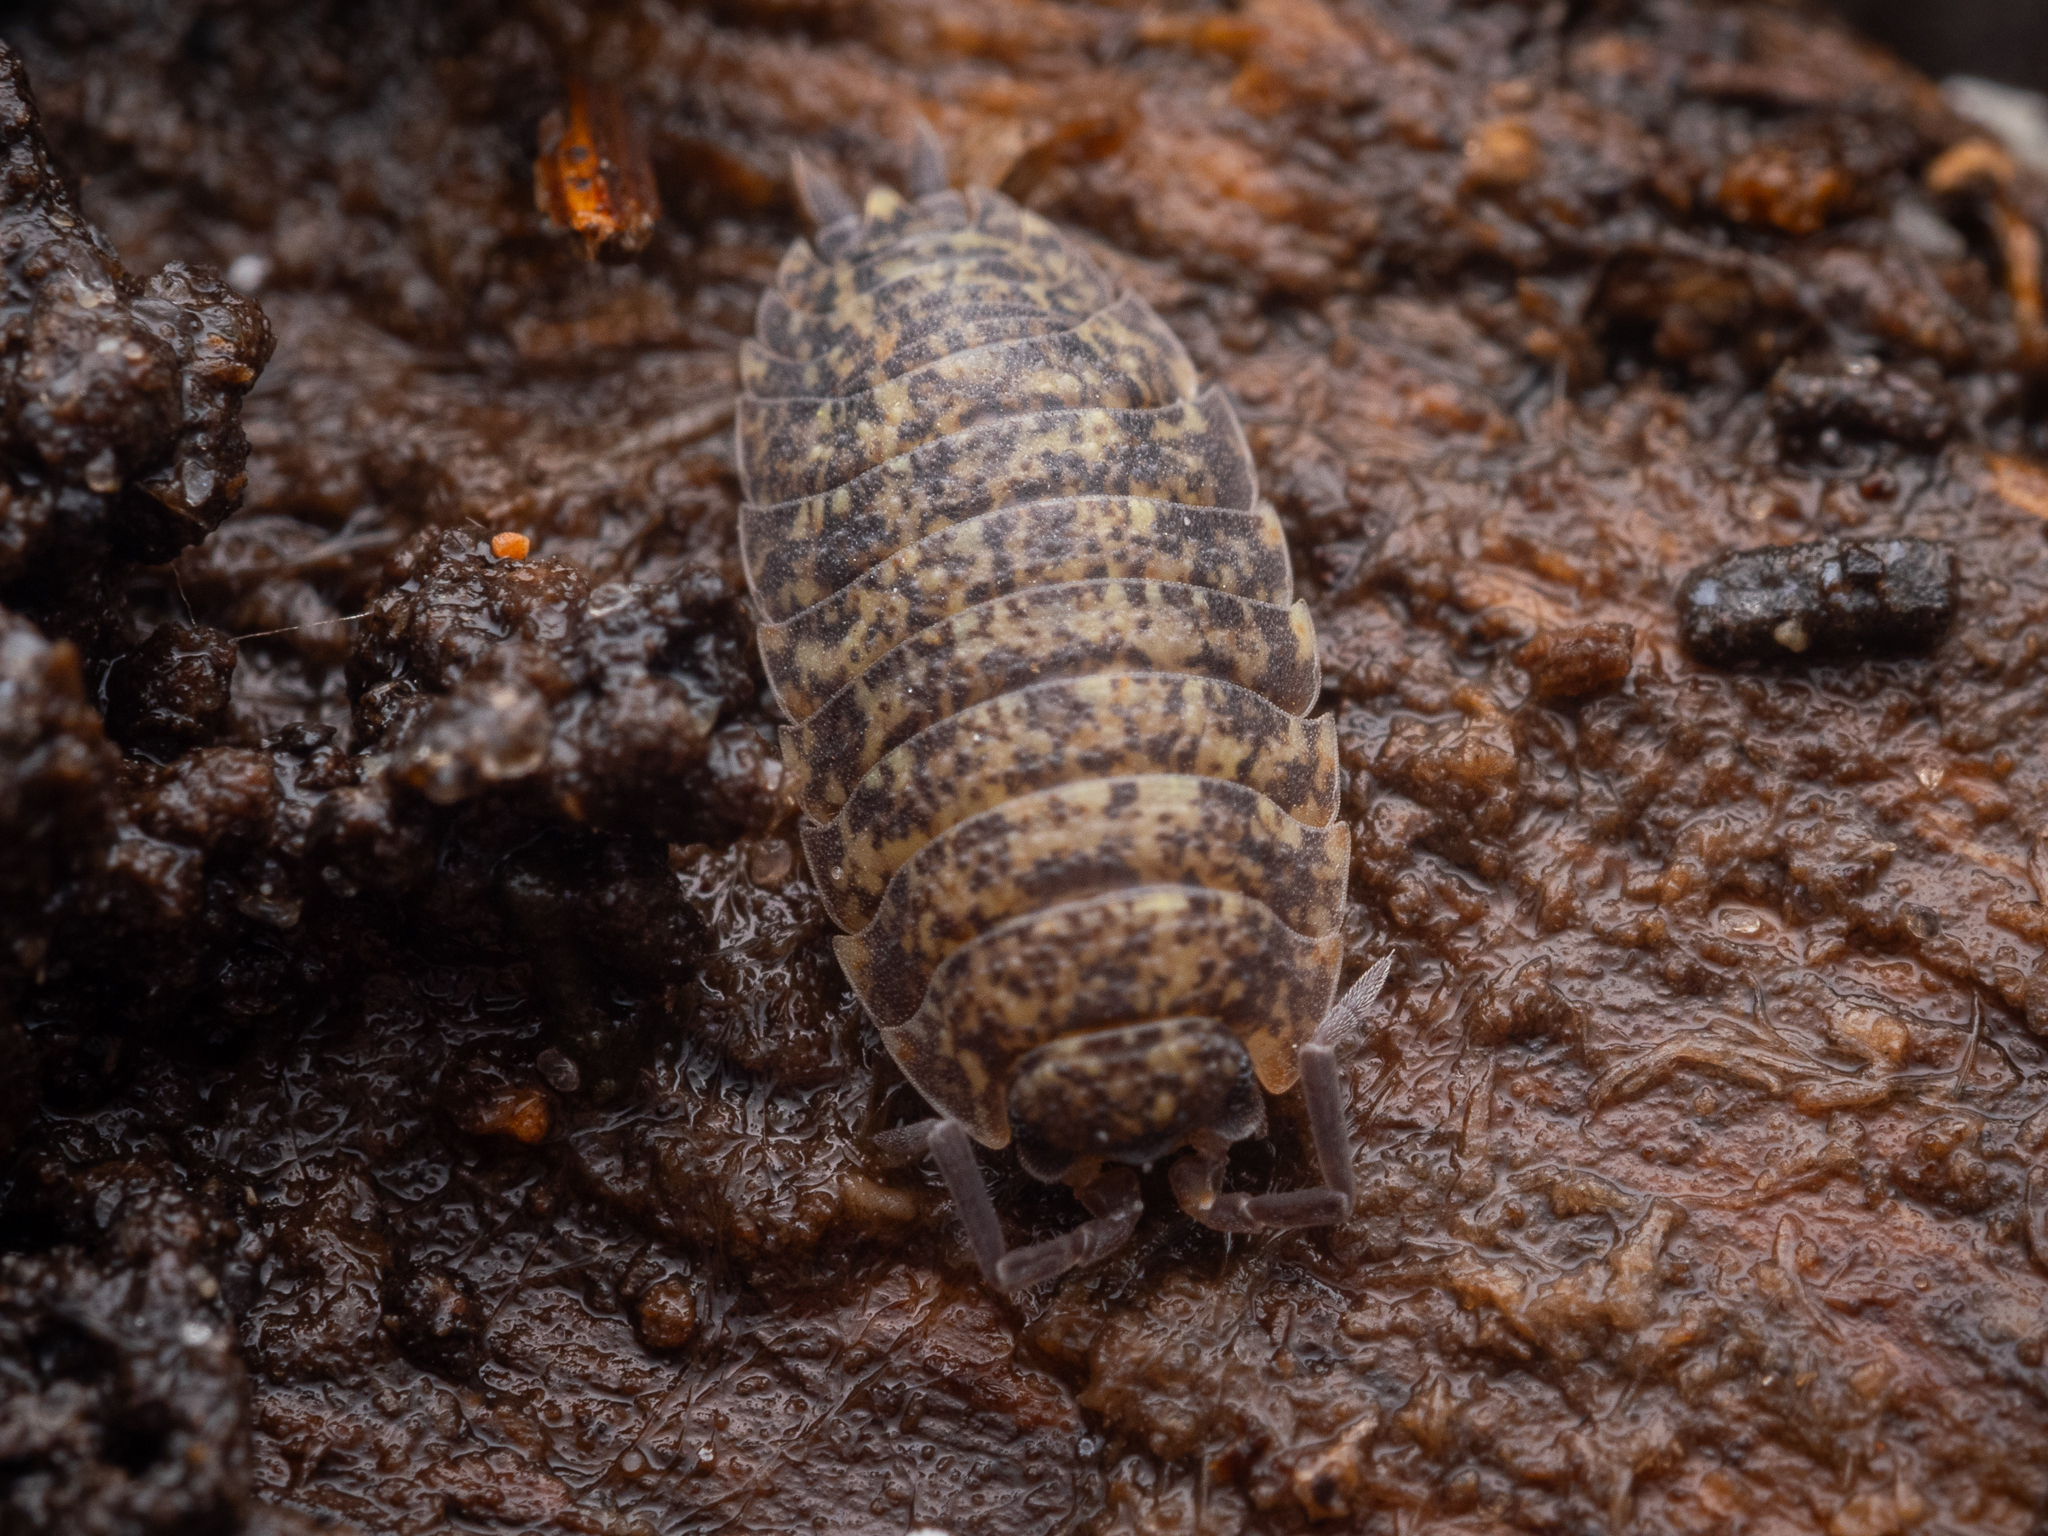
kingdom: Animalia
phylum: Arthropoda
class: Malacostraca
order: Isopoda
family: Porcellionidae
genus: Porcellio
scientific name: Porcellio scaber
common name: Common rough woodlouse
